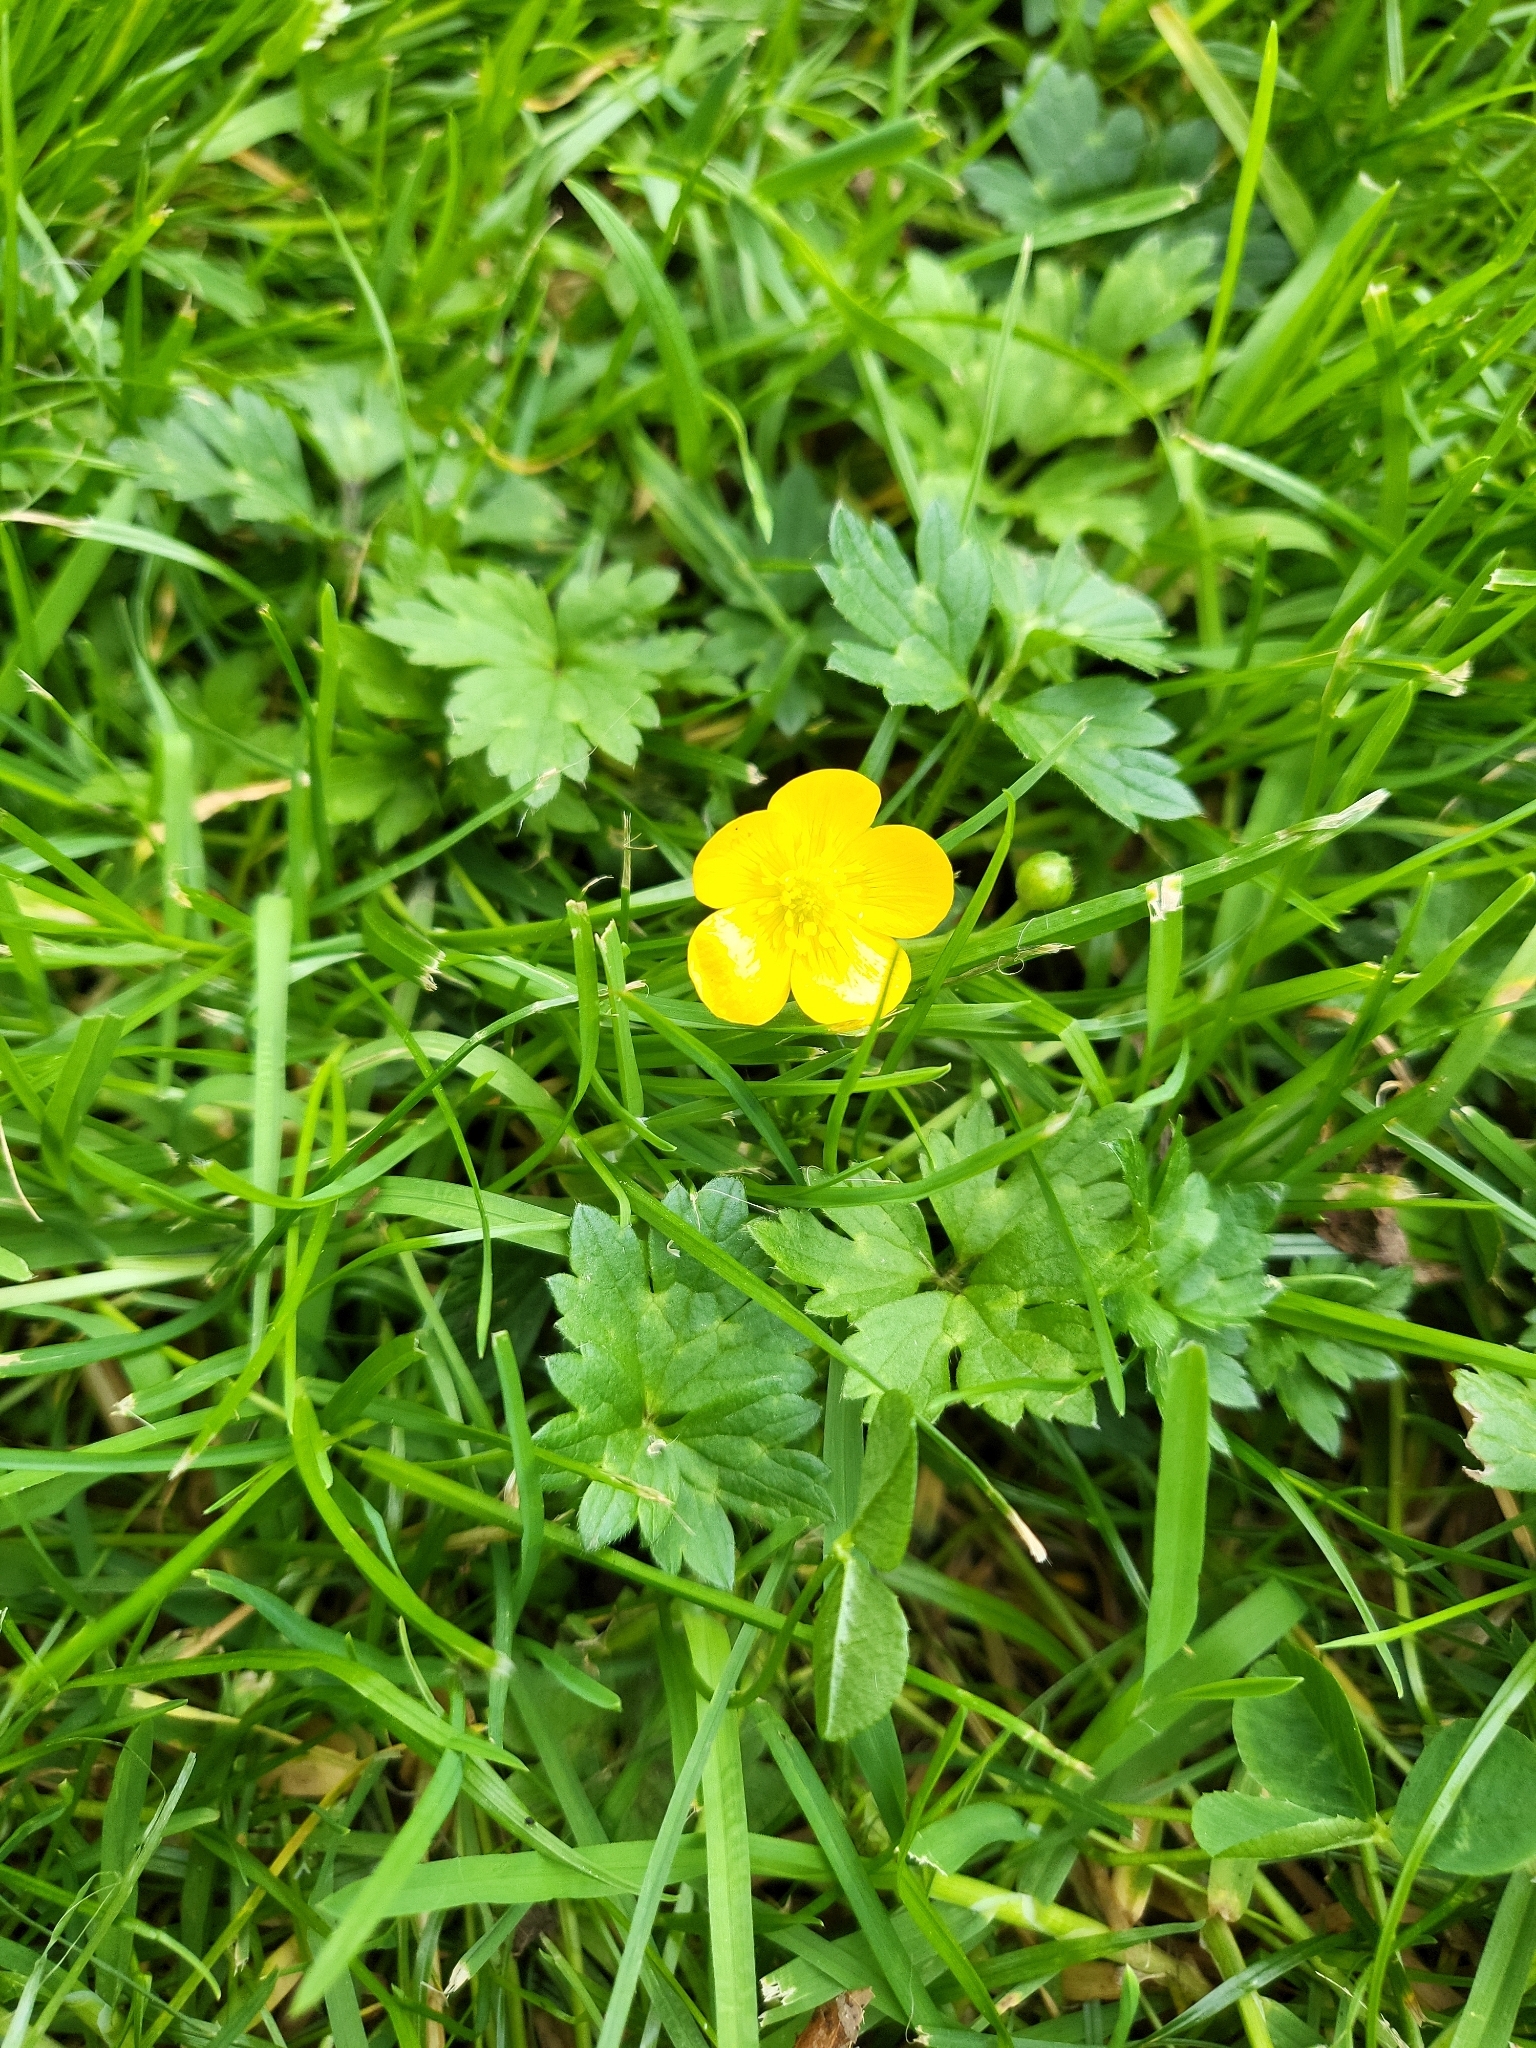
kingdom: Plantae
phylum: Tracheophyta
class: Magnoliopsida
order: Ranunculales
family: Ranunculaceae
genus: Ranunculus
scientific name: Ranunculus repens
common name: Creeping buttercup
